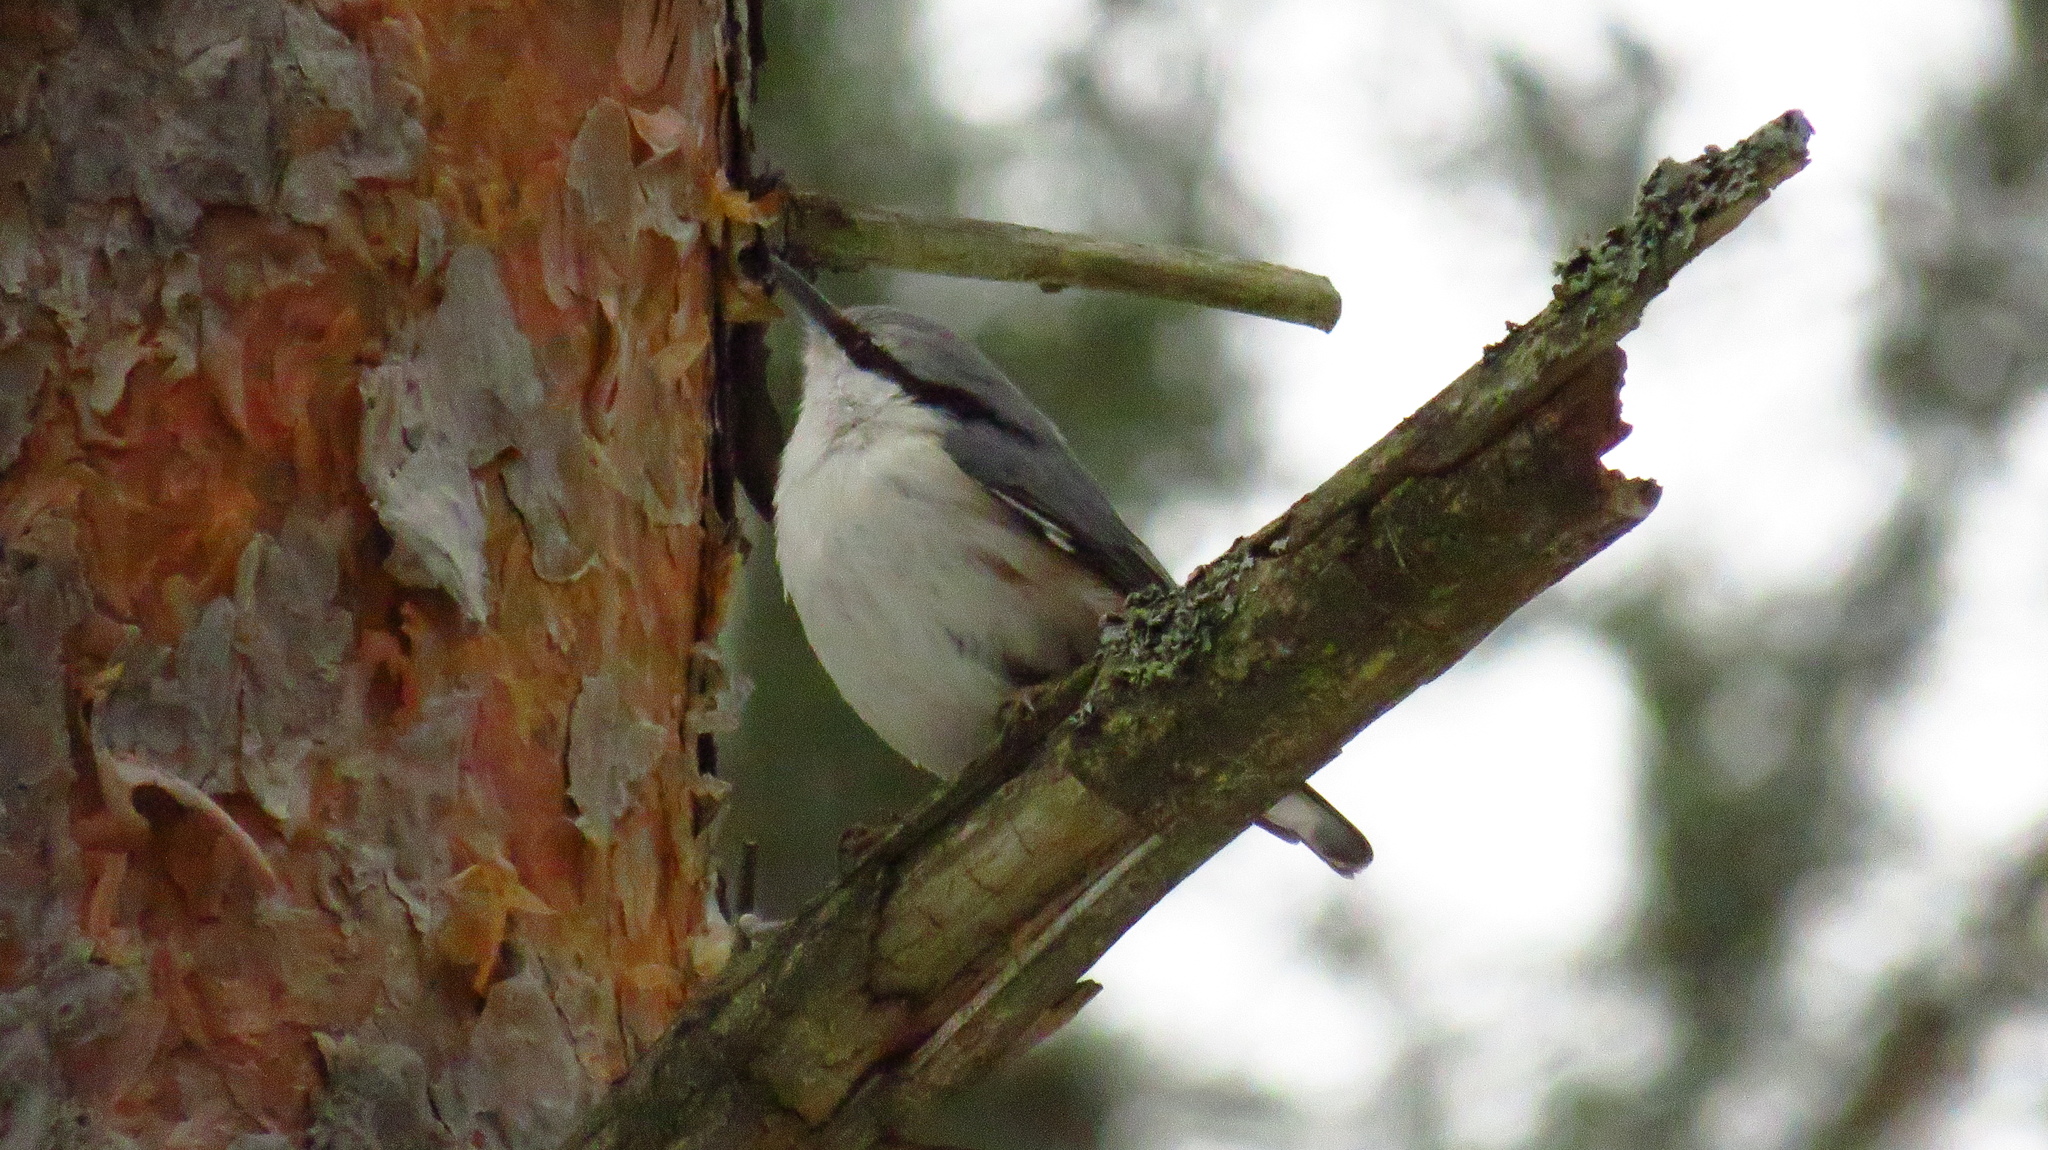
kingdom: Animalia
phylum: Chordata
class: Aves
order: Passeriformes
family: Sittidae
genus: Sitta
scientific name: Sitta europaea
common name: Eurasian nuthatch
